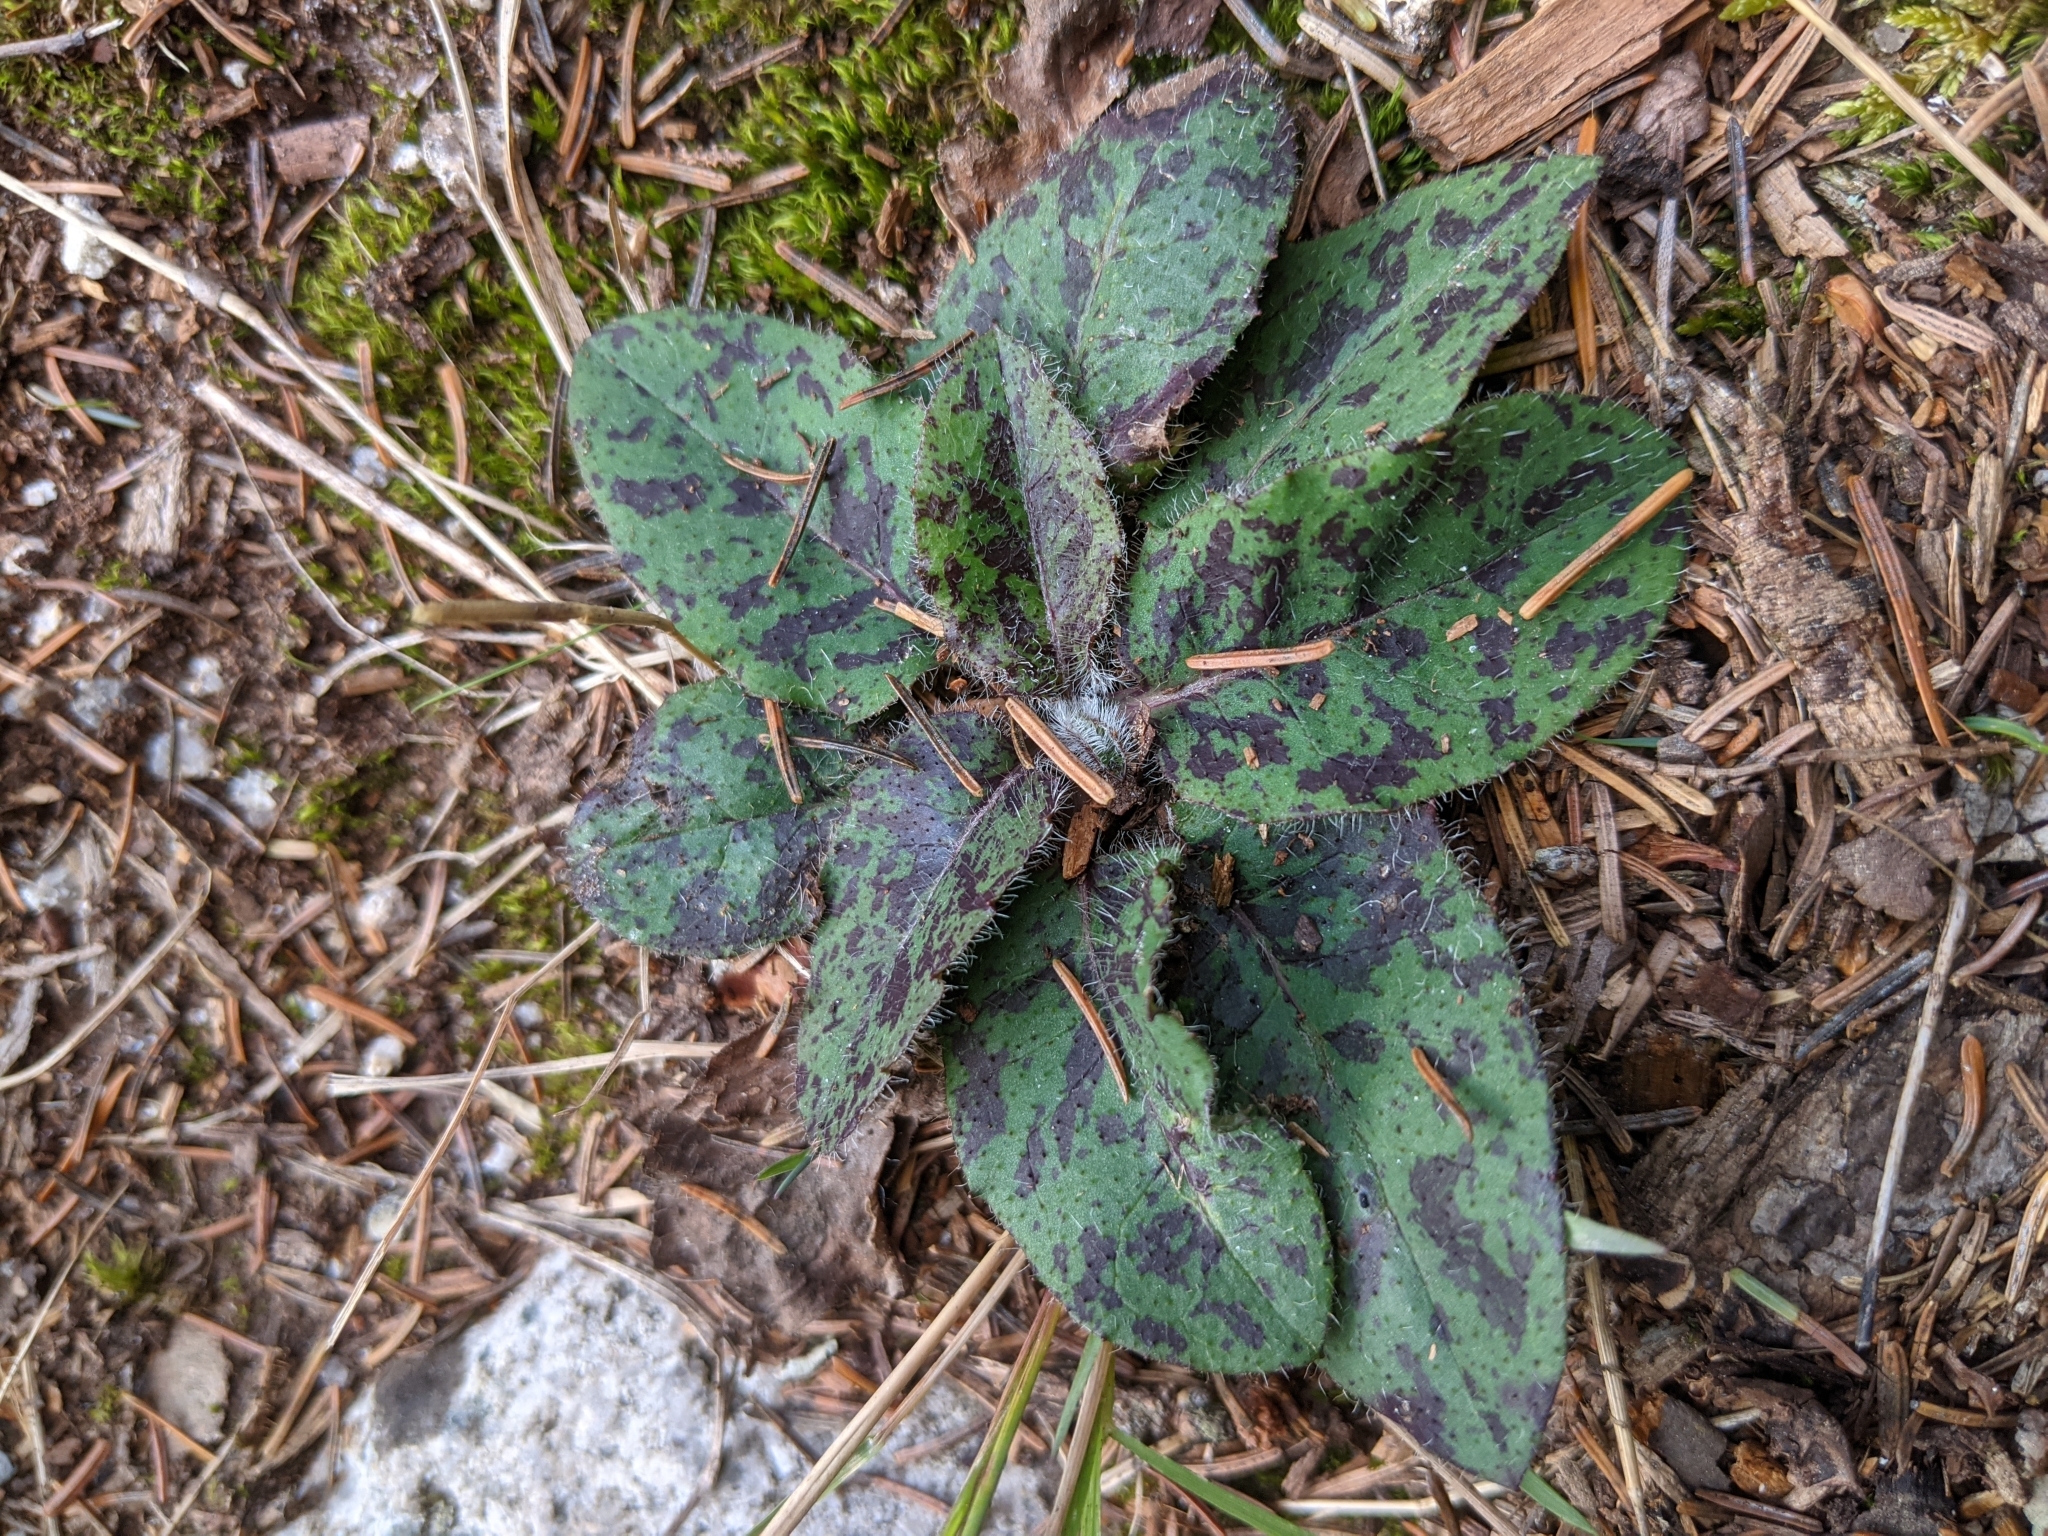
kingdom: Plantae
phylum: Tracheophyta
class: Magnoliopsida
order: Asterales
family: Asteraceae
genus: Hieracium
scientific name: Hieracium maculatum
